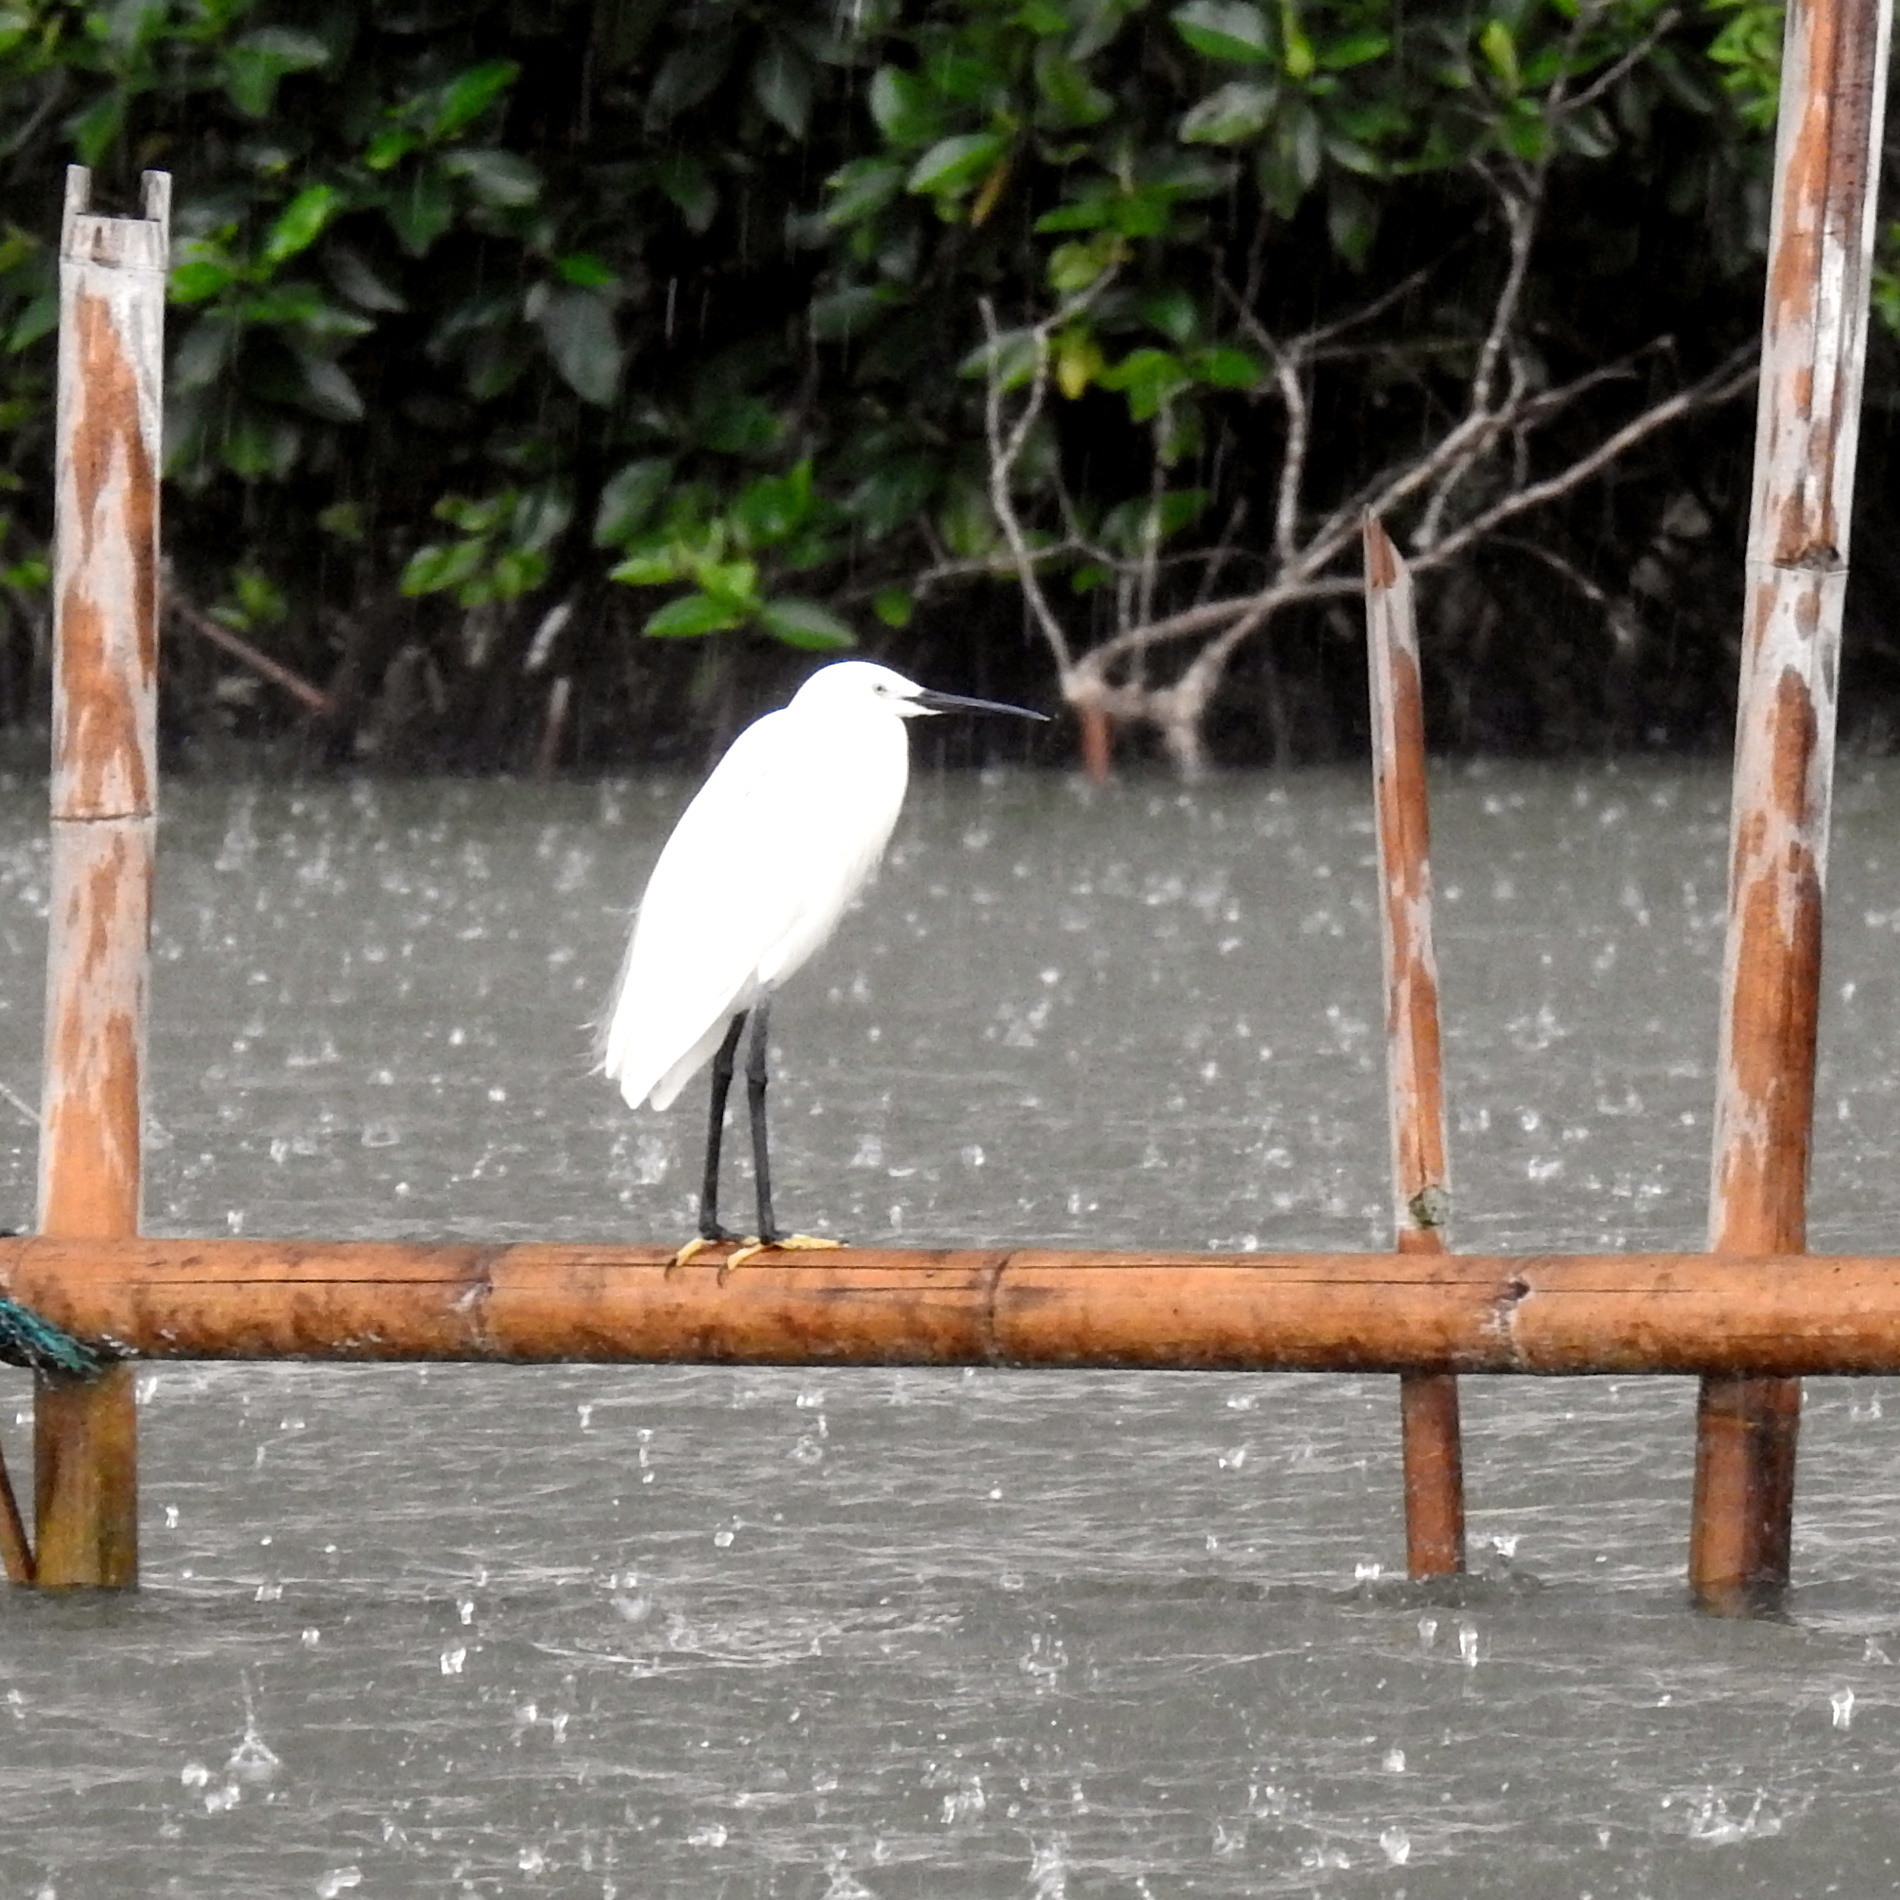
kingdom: Animalia
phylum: Chordata
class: Aves
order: Pelecaniformes
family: Ardeidae
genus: Egretta
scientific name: Egretta garzetta
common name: Little egret
